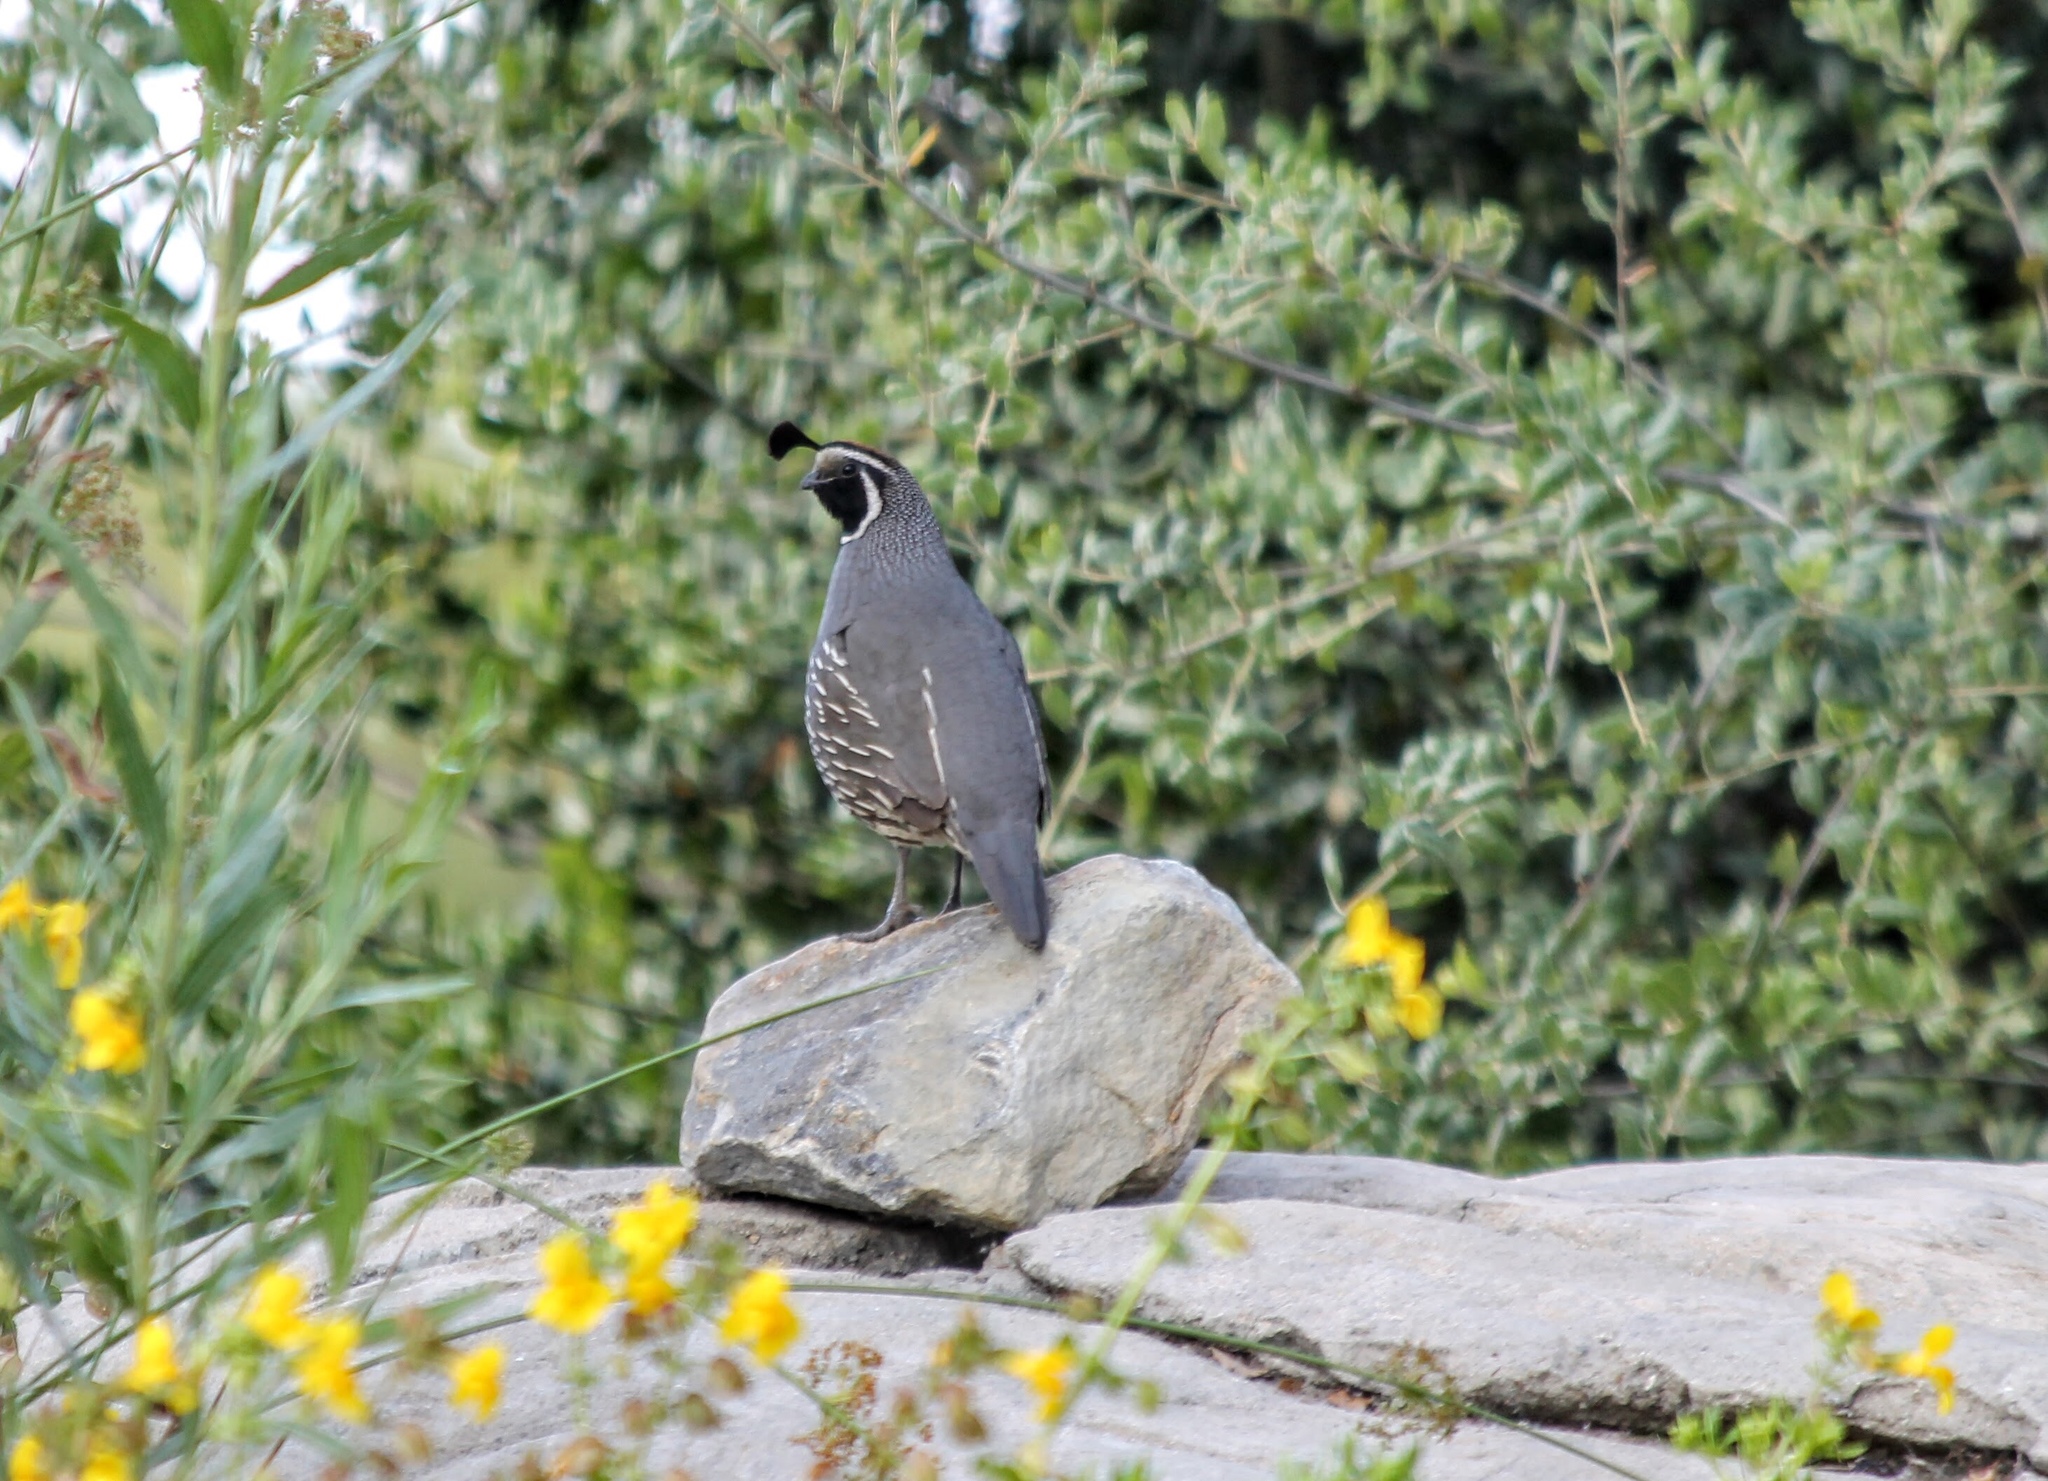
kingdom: Animalia
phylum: Chordata
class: Aves
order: Galliformes
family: Odontophoridae
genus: Callipepla
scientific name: Callipepla californica
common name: California quail
